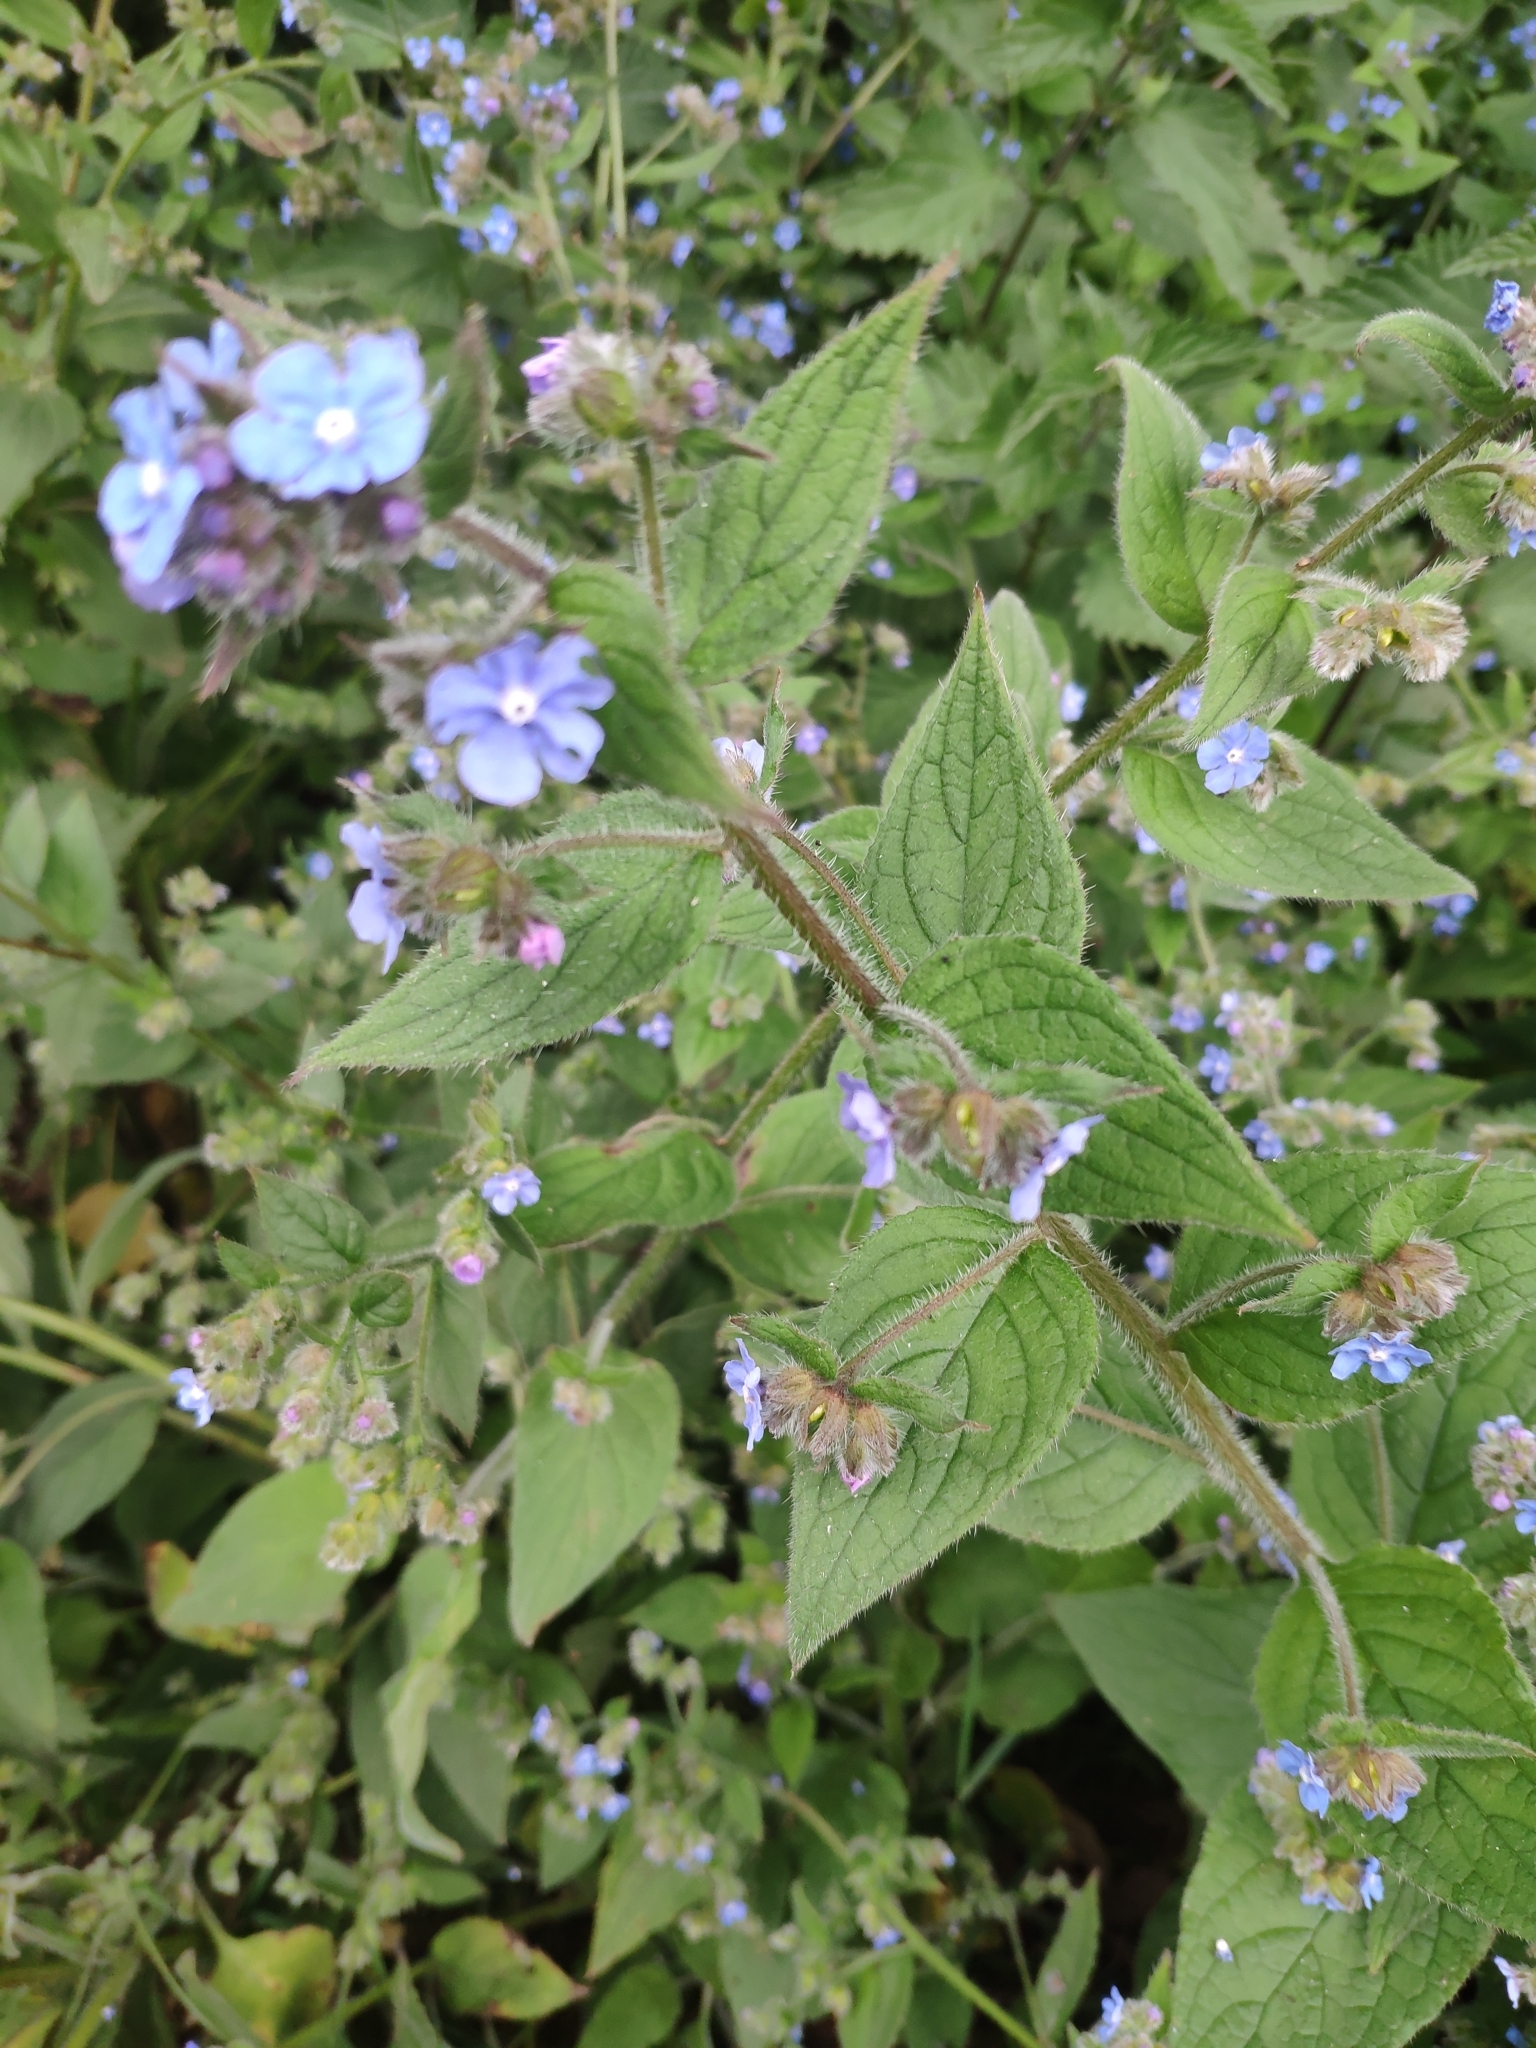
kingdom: Plantae
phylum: Tracheophyta
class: Magnoliopsida
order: Boraginales
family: Boraginaceae
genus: Pentaglottis
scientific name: Pentaglottis sempervirens
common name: Green alkanet
